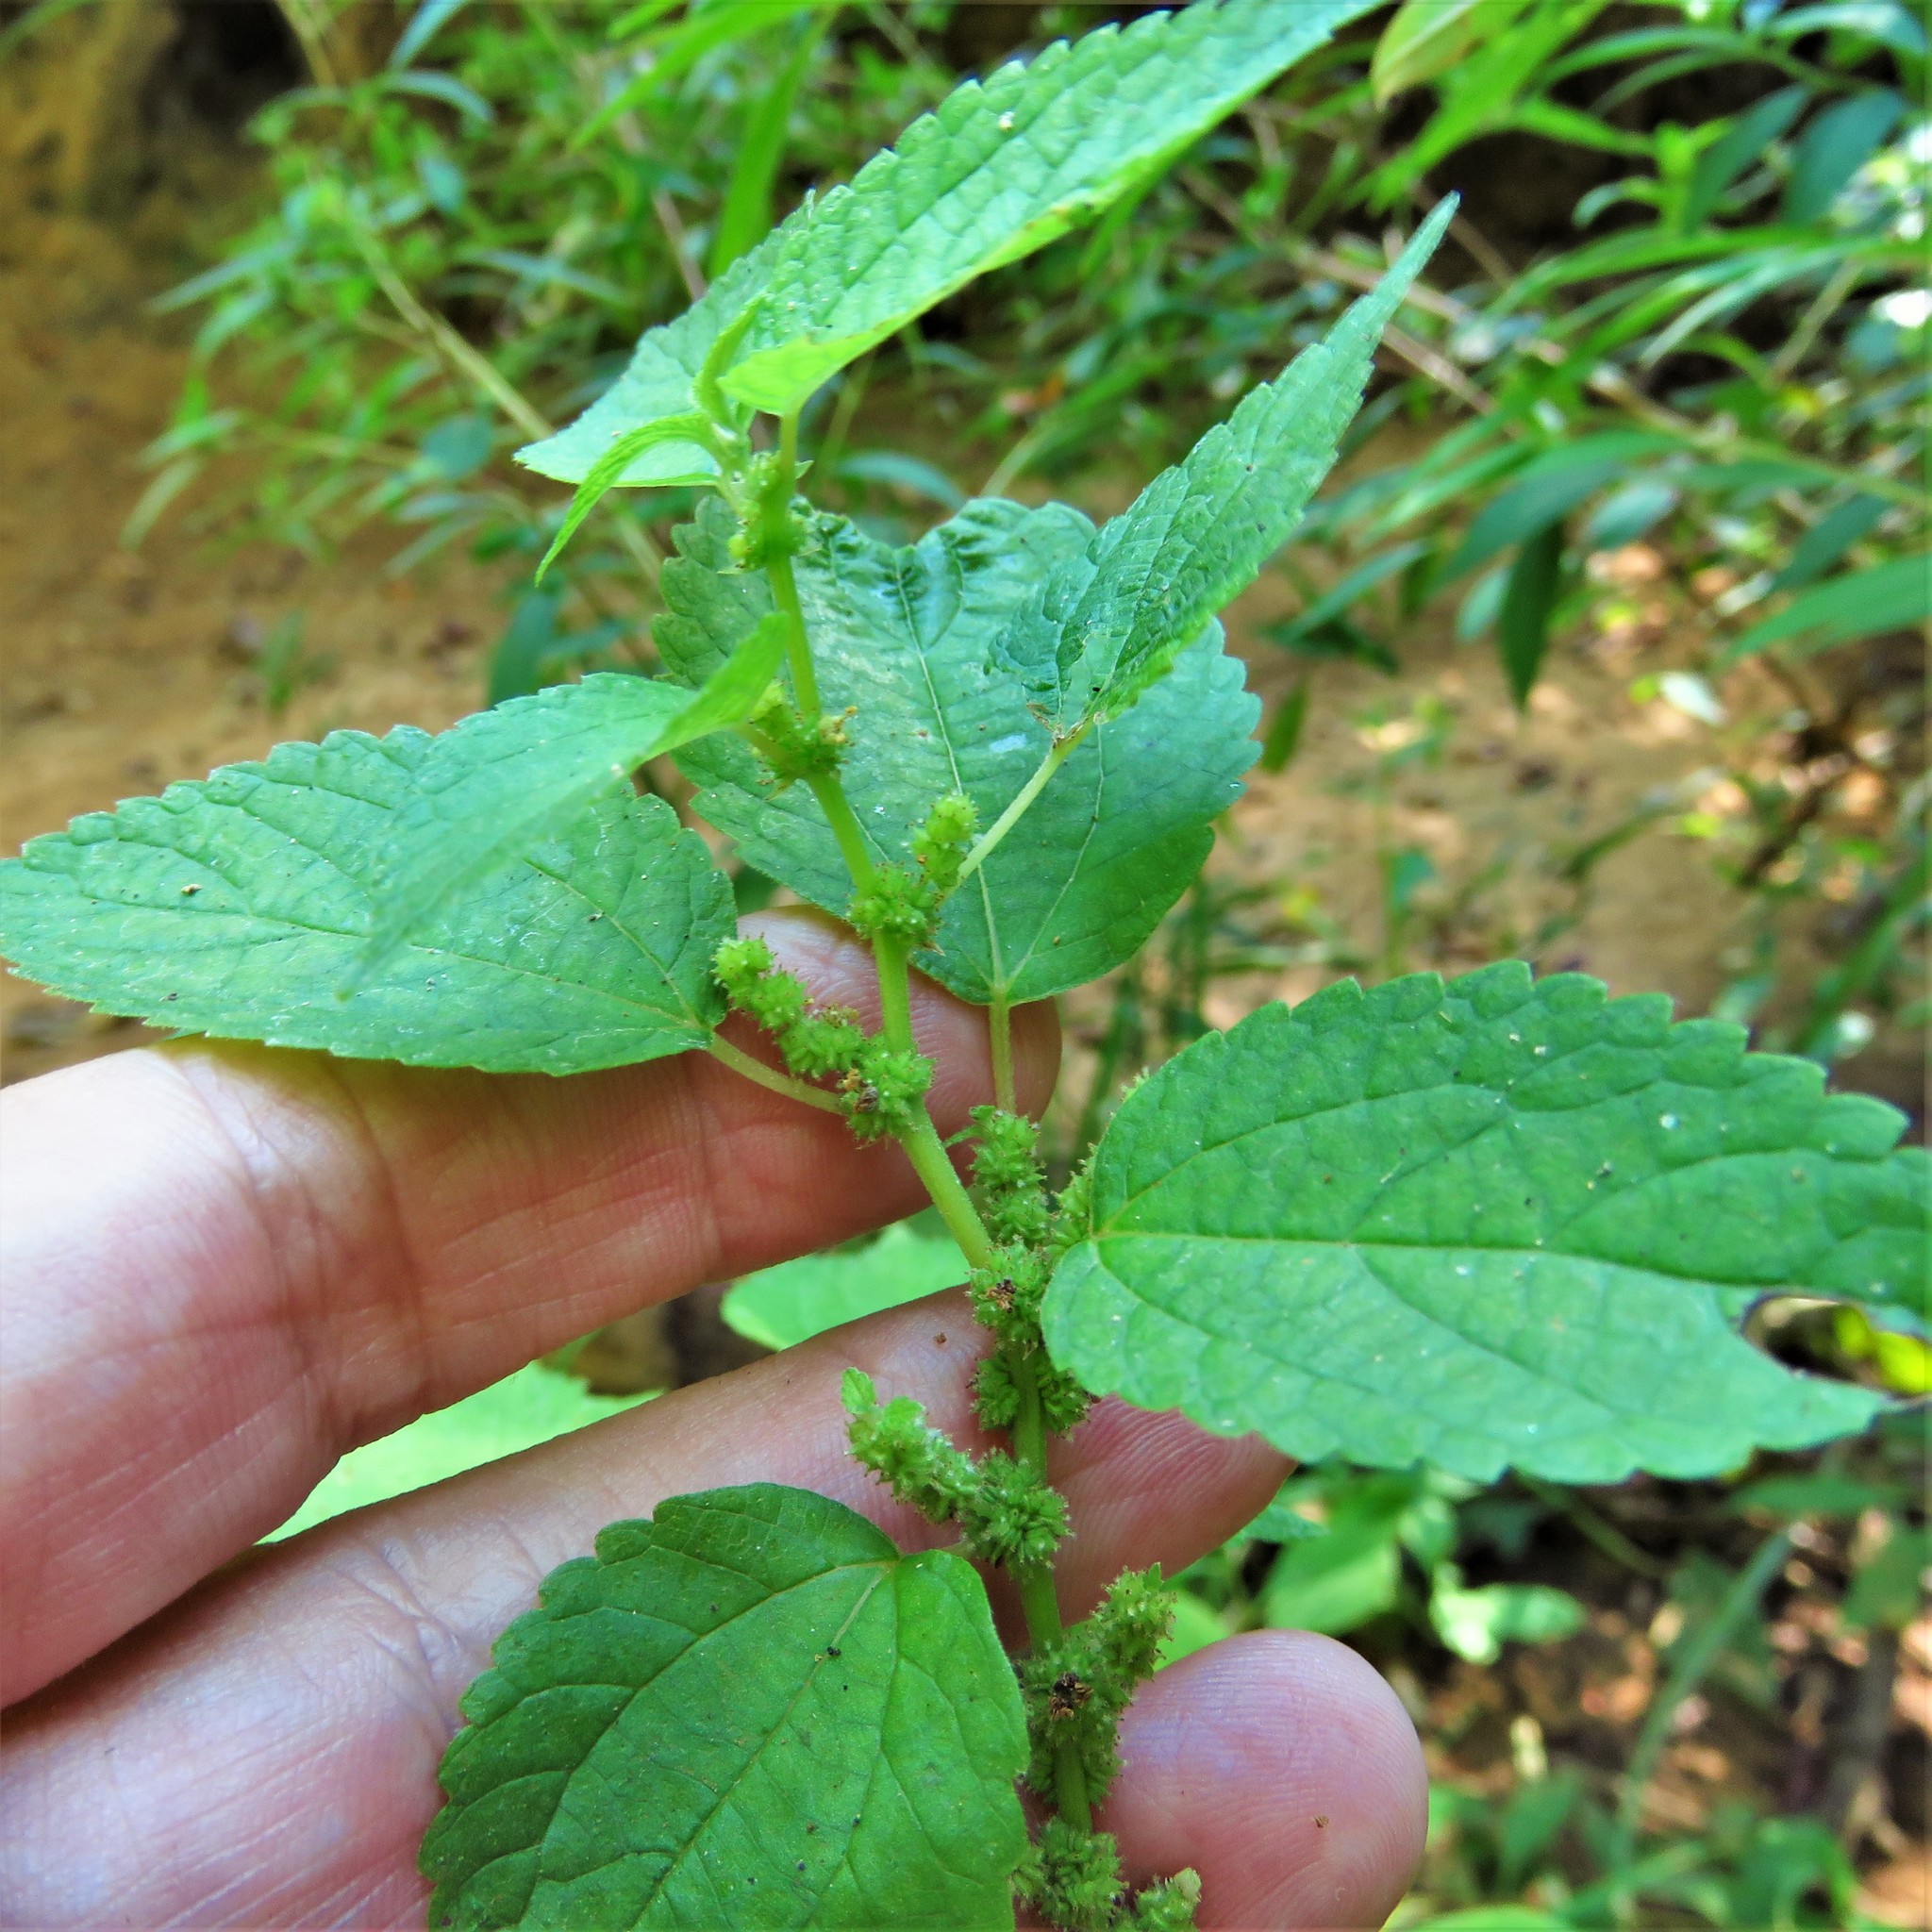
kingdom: Plantae
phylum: Tracheophyta
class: Magnoliopsida
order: Rosales
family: Urticaceae
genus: Boehmeria
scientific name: Boehmeria cylindrica
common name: Bog-hemp
